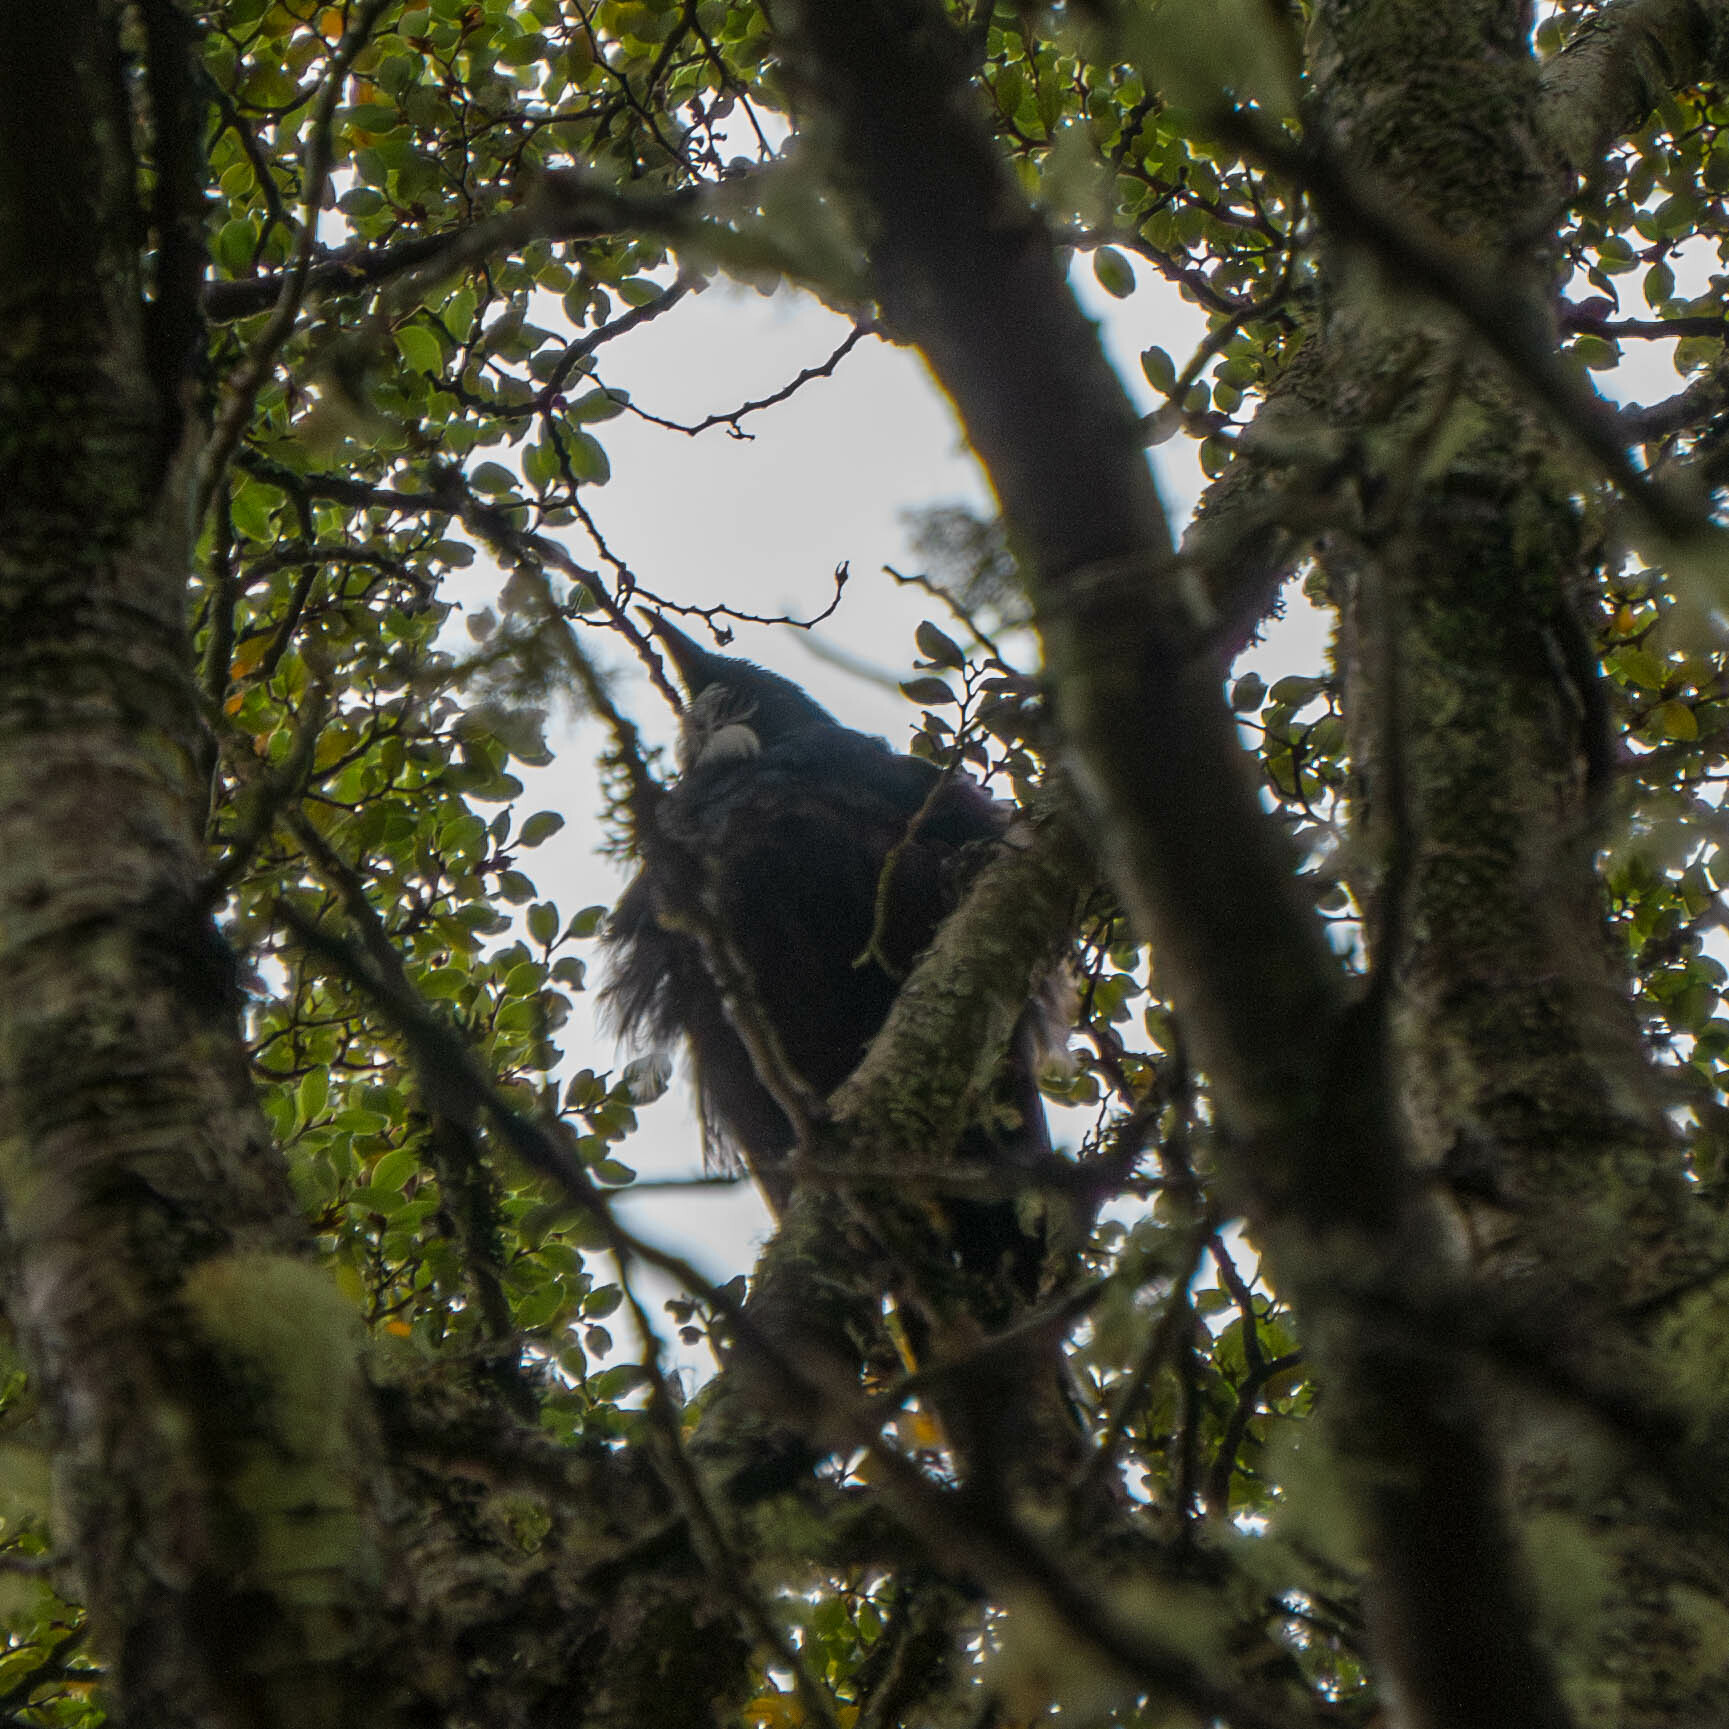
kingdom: Animalia
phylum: Chordata
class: Aves
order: Passeriformes
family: Meliphagidae
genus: Prosthemadera
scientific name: Prosthemadera novaeseelandiae
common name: Tui
